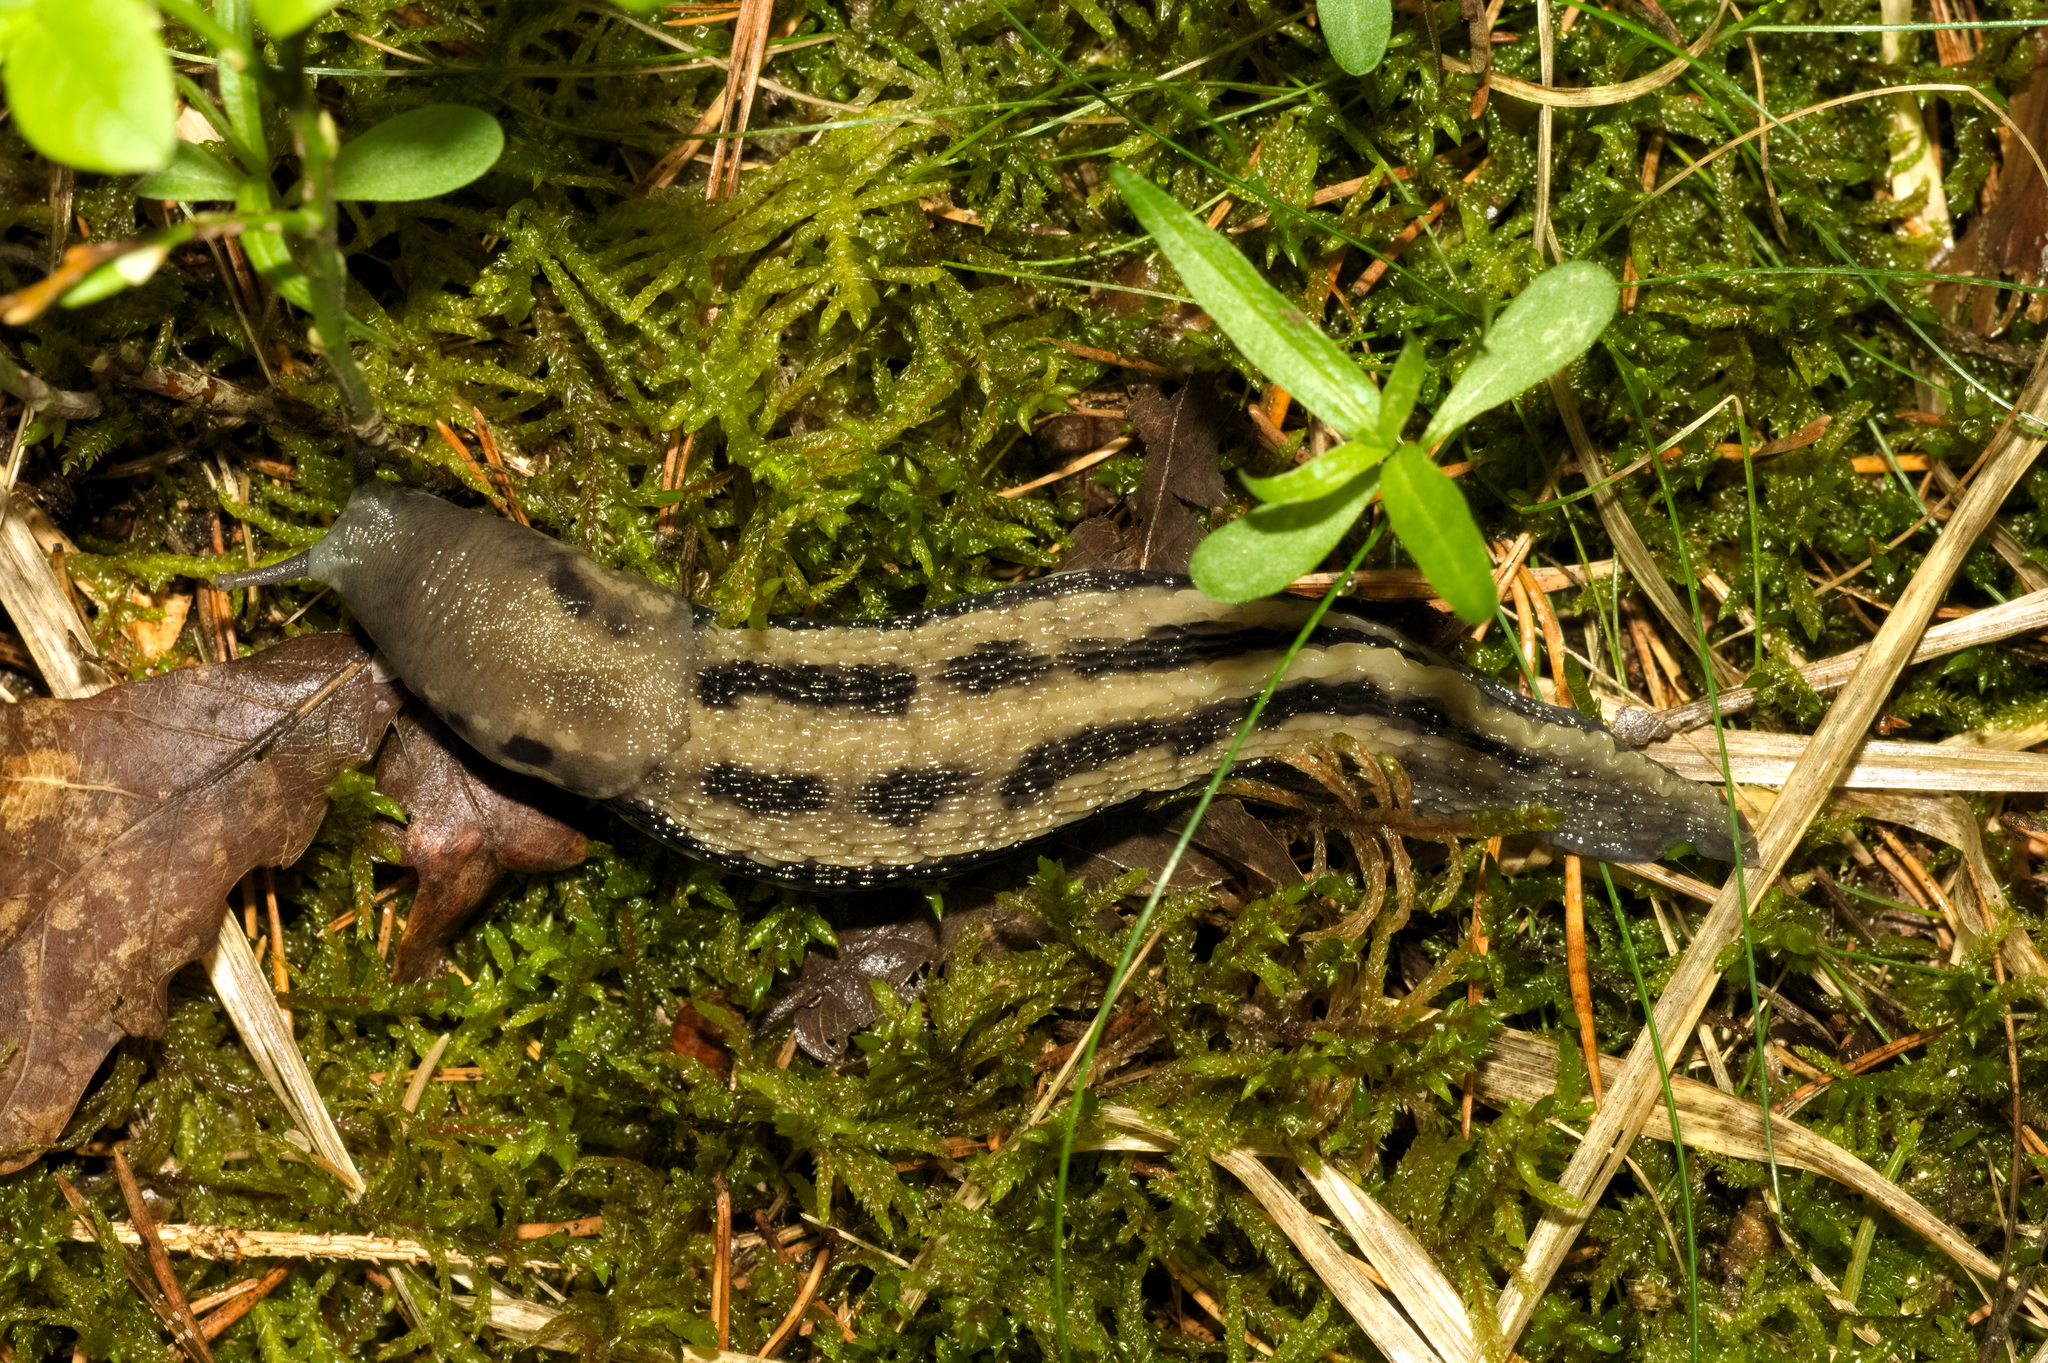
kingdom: Animalia
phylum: Mollusca
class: Gastropoda
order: Stylommatophora
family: Limacidae
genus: Limax
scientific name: Limax cinereoniger
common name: Ash-black slug
